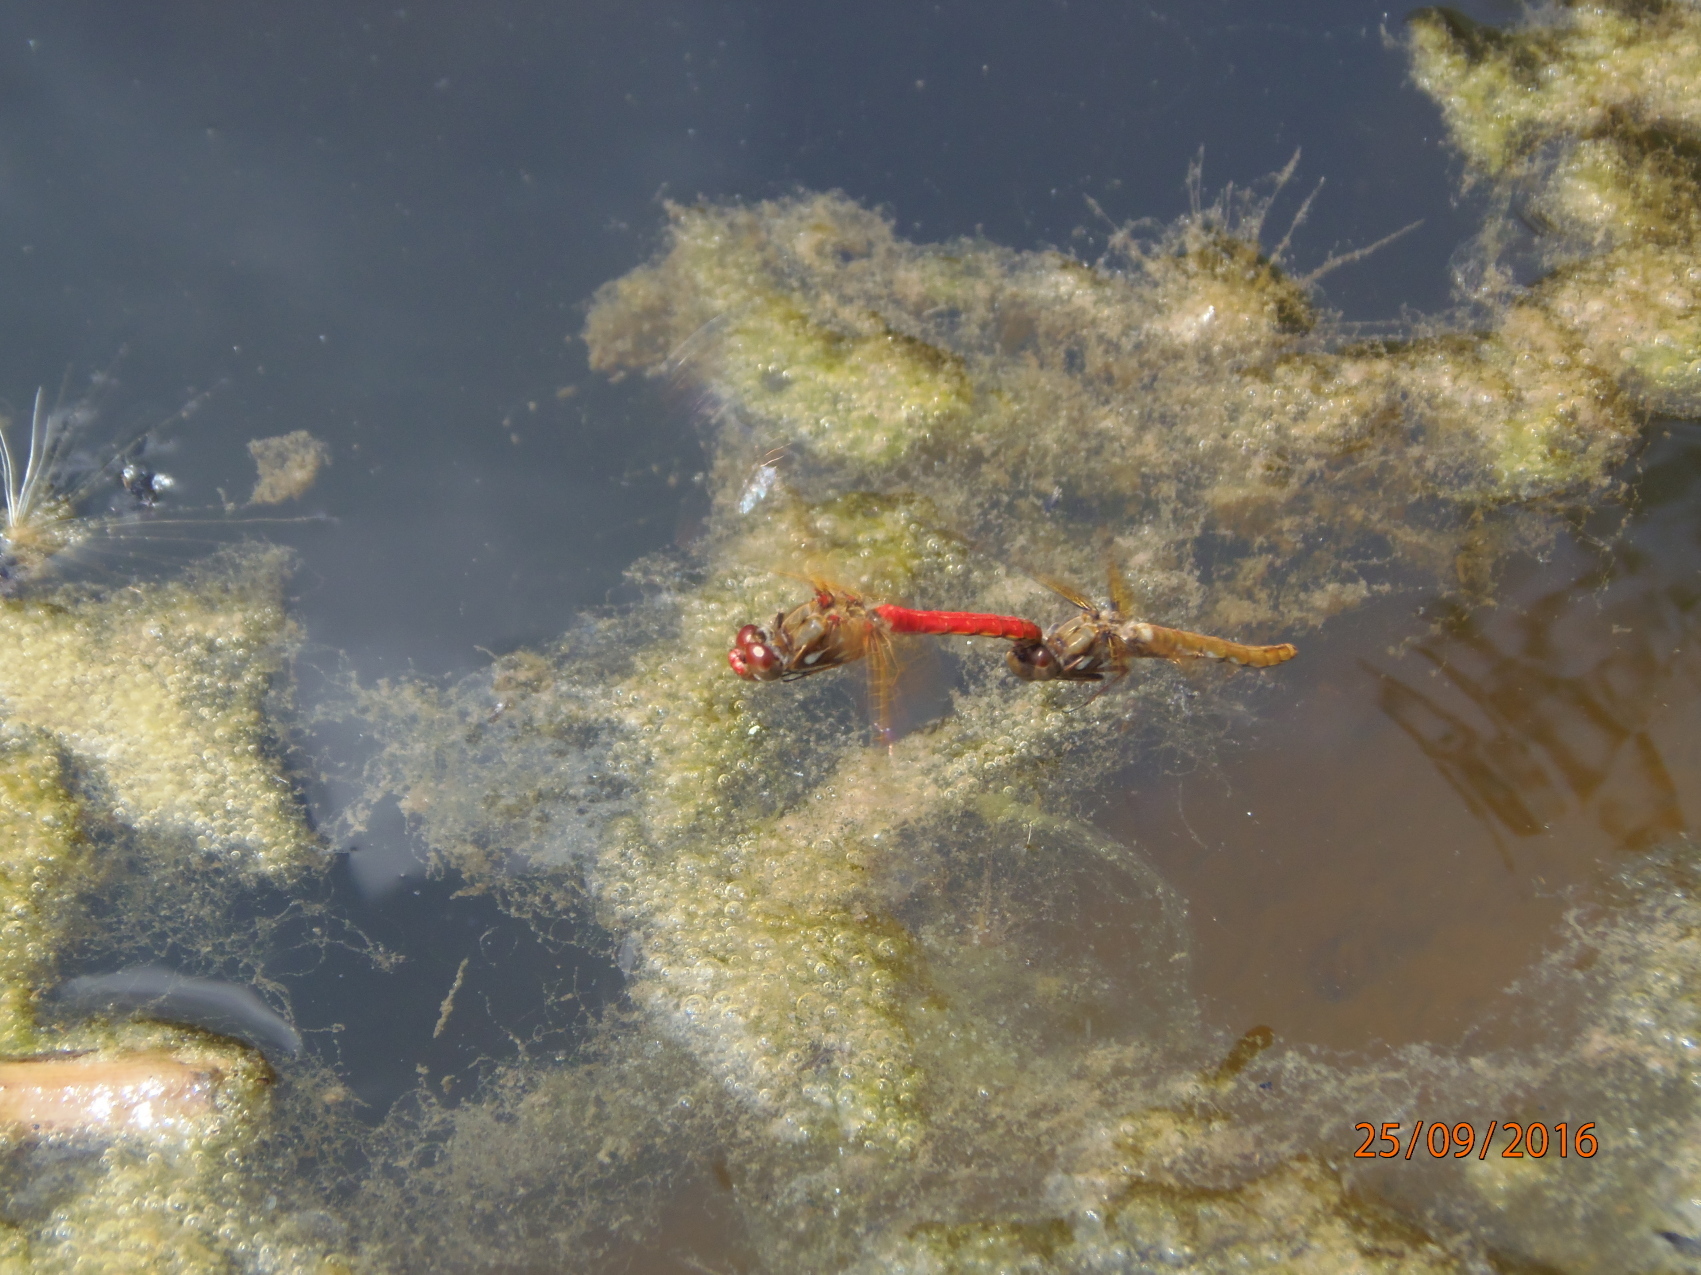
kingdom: Animalia
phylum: Arthropoda
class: Insecta
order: Odonata
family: Libellulidae
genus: Sympetrum
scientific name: Sympetrum illotum
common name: Cardinal meadowhawk
